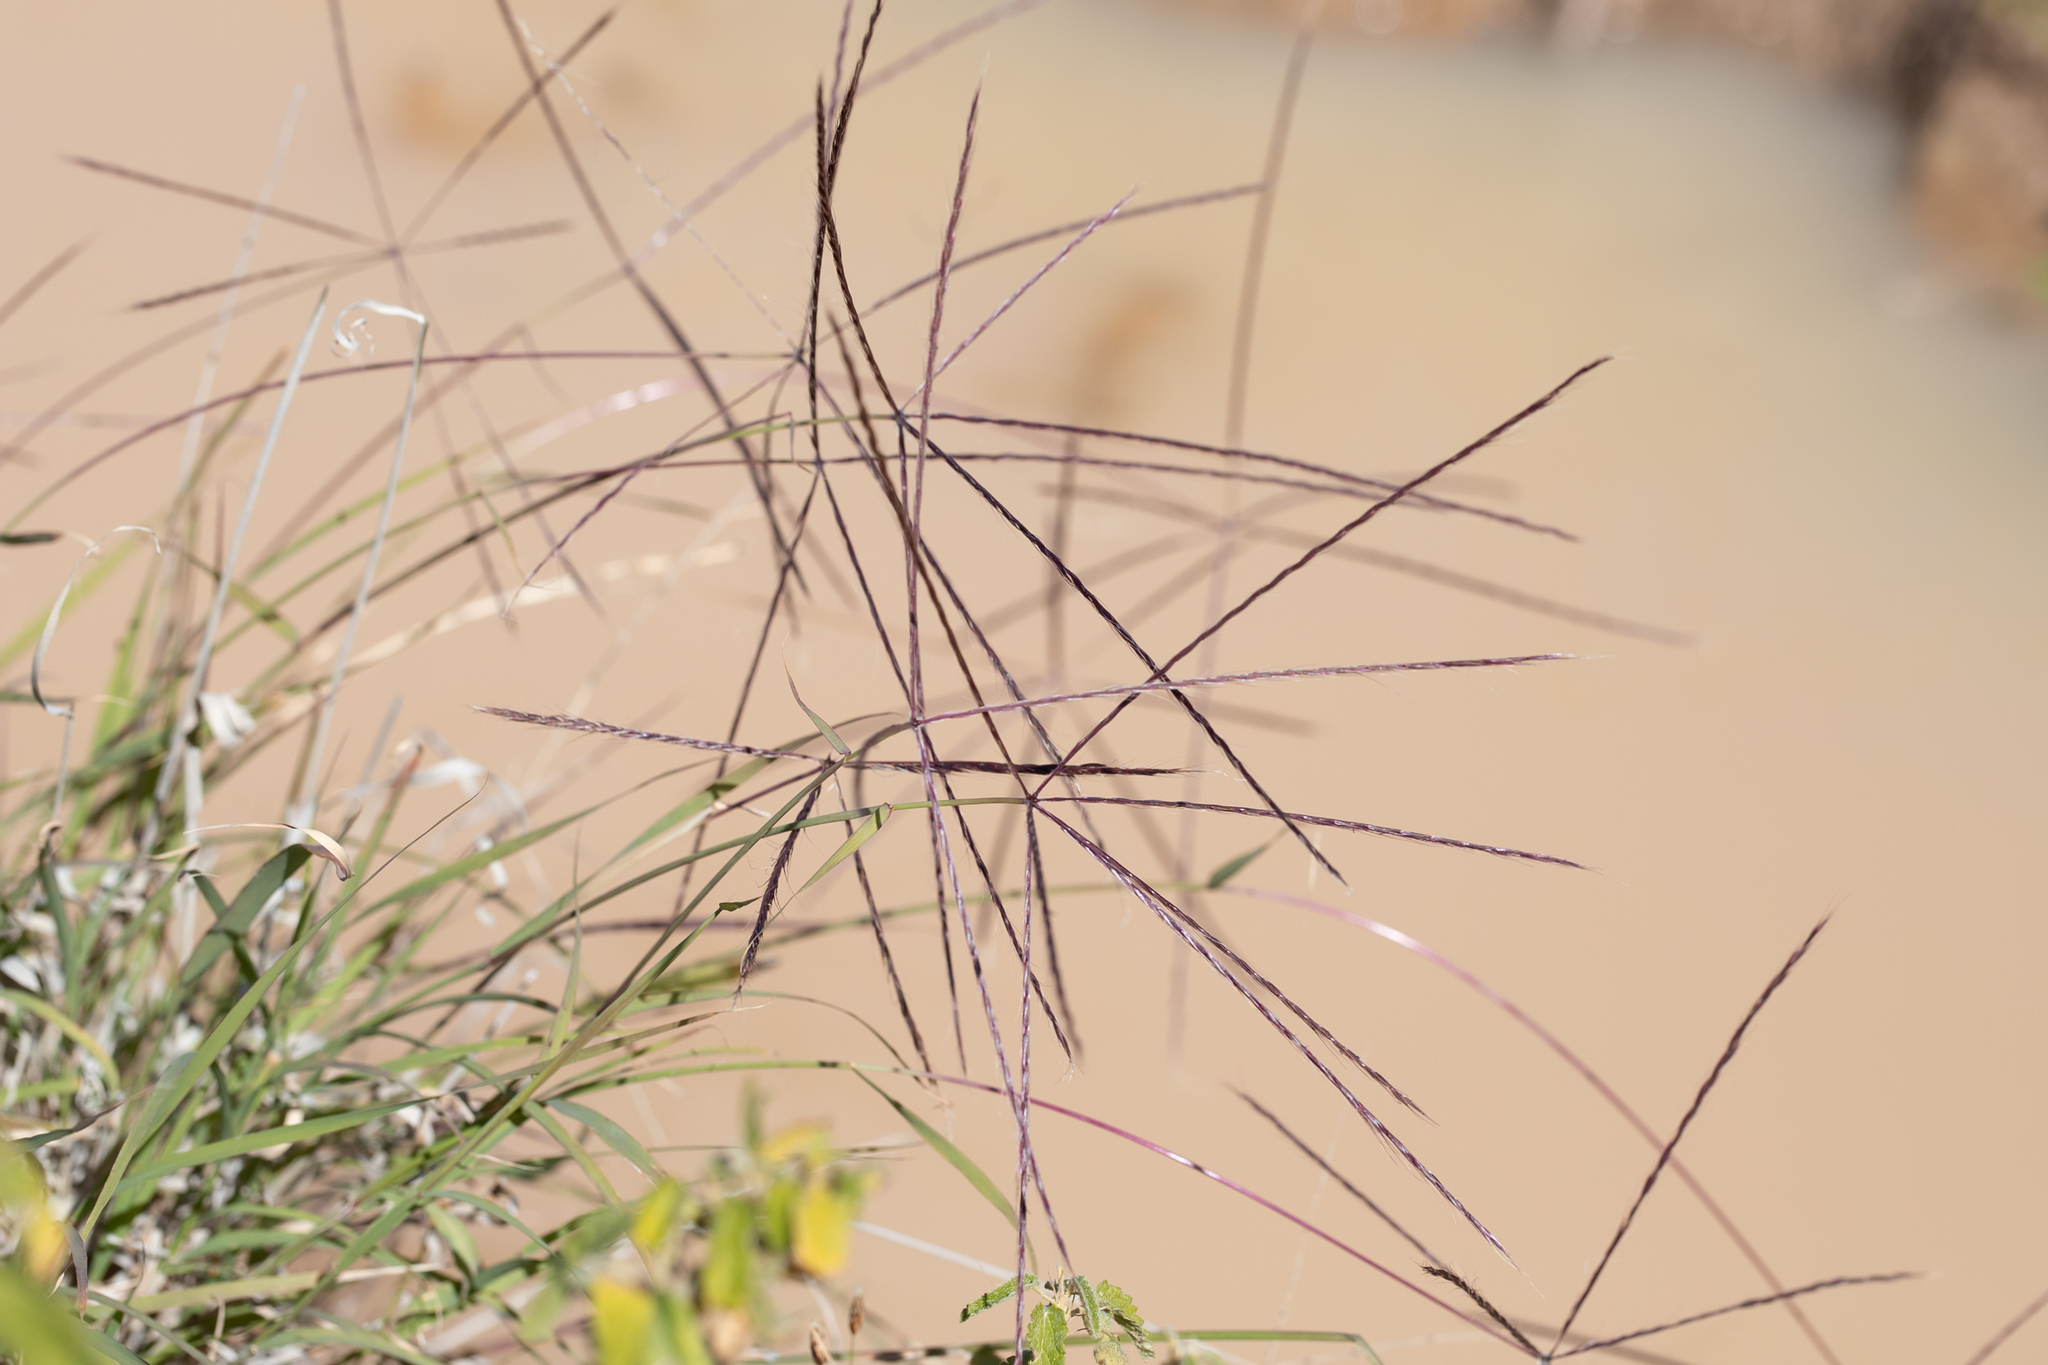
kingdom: Plantae
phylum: Tracheophyta
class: Liliopsida
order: Poales
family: Poaceae
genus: Enteropogon
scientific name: Enteropogon ramosus
